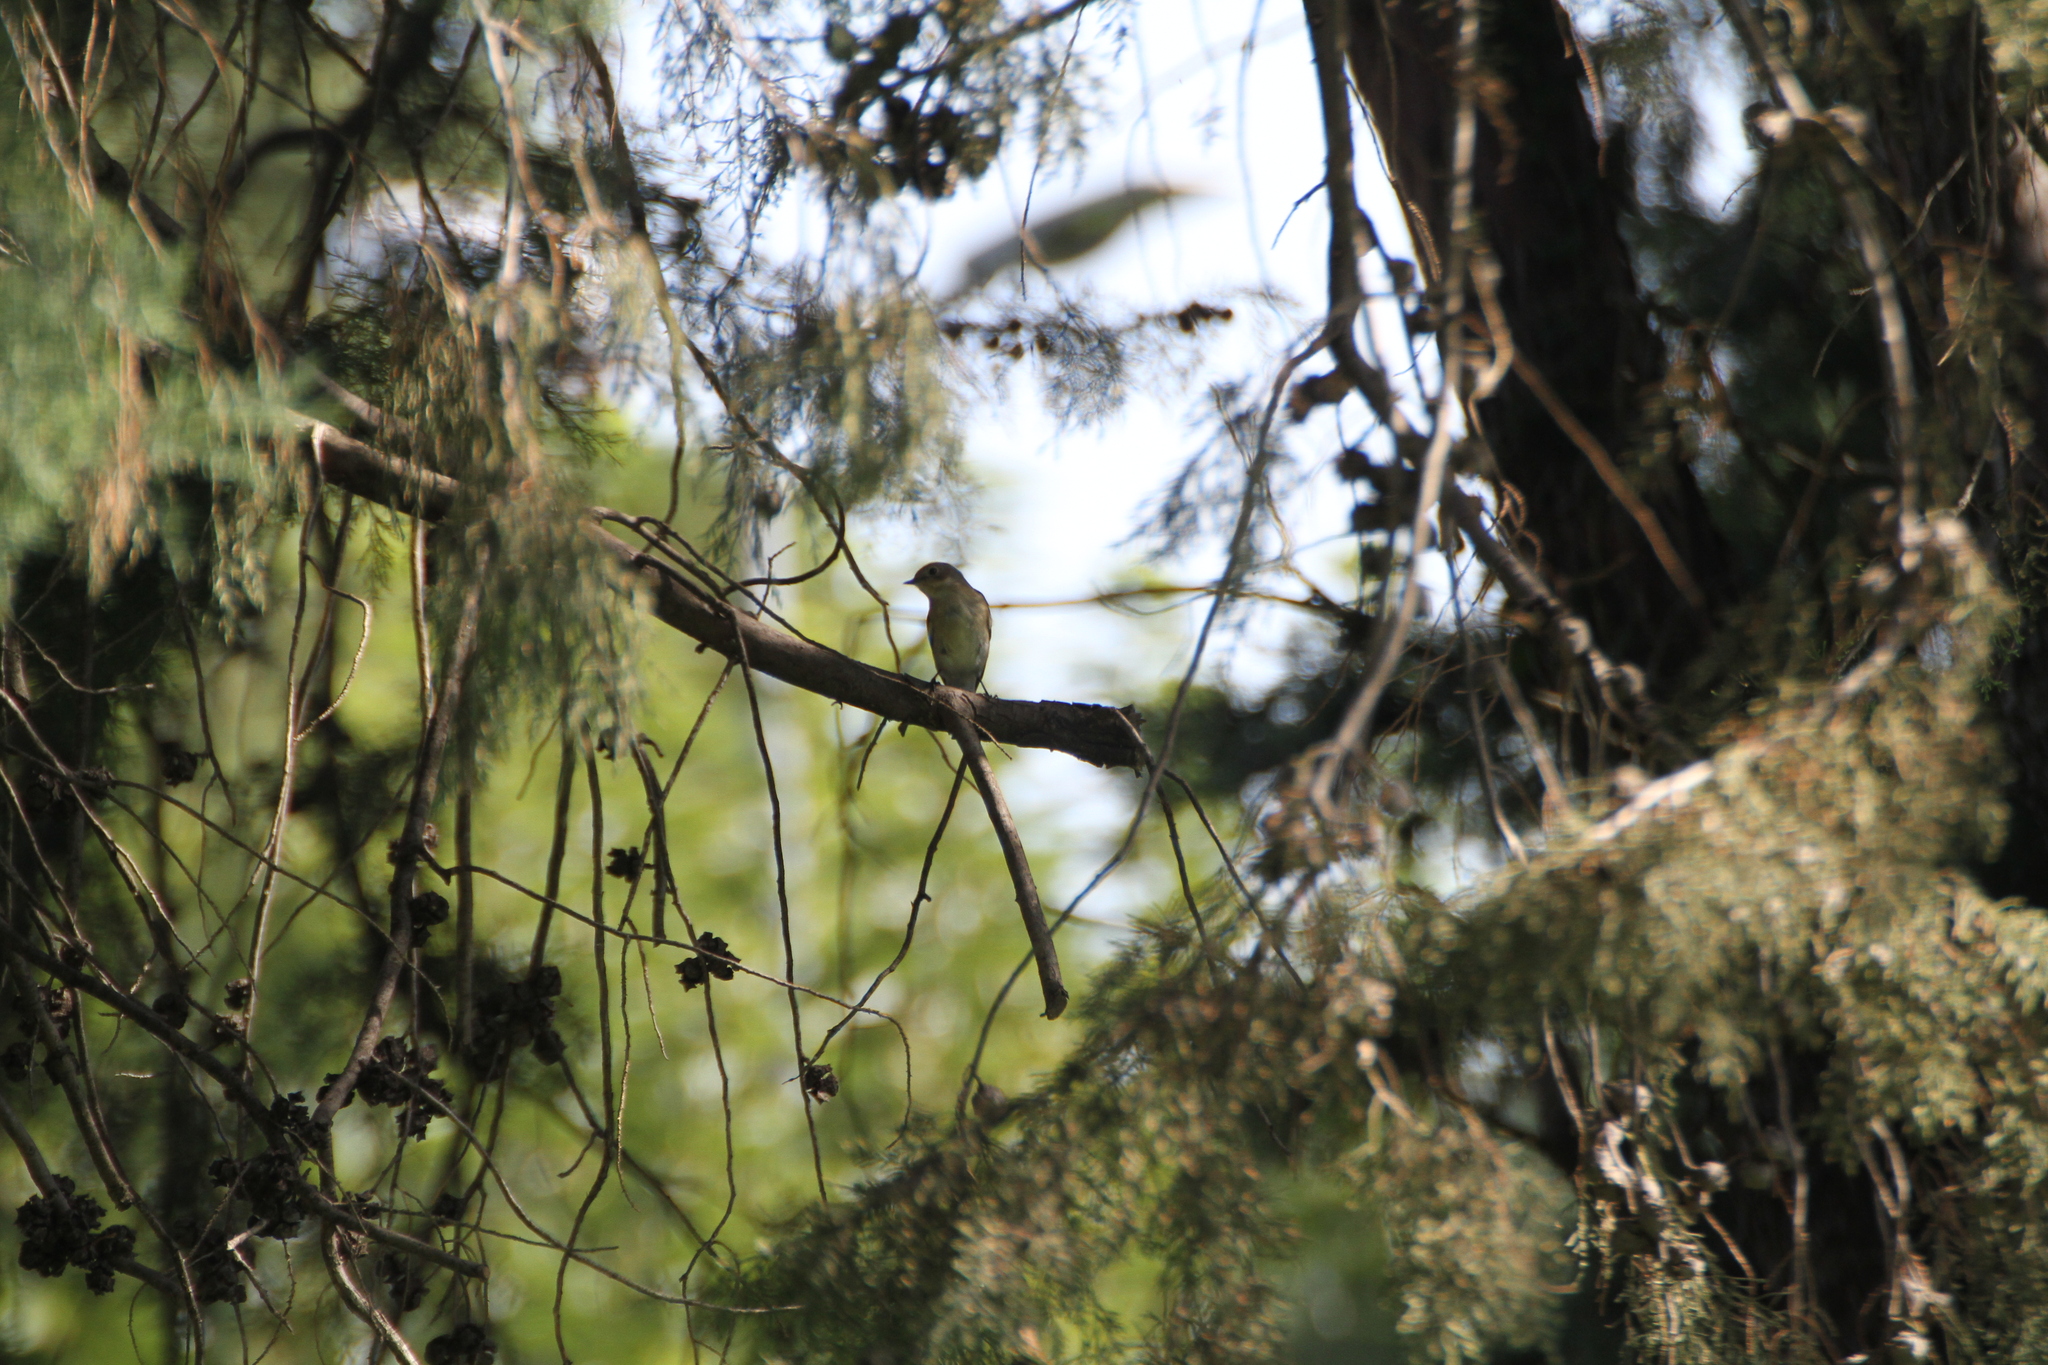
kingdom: Animalia
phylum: Chordata
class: Aves
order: Passeriformes
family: Muscicapidae
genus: Muscicapa
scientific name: Muscicapa striata
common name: Spotted flycatcher
